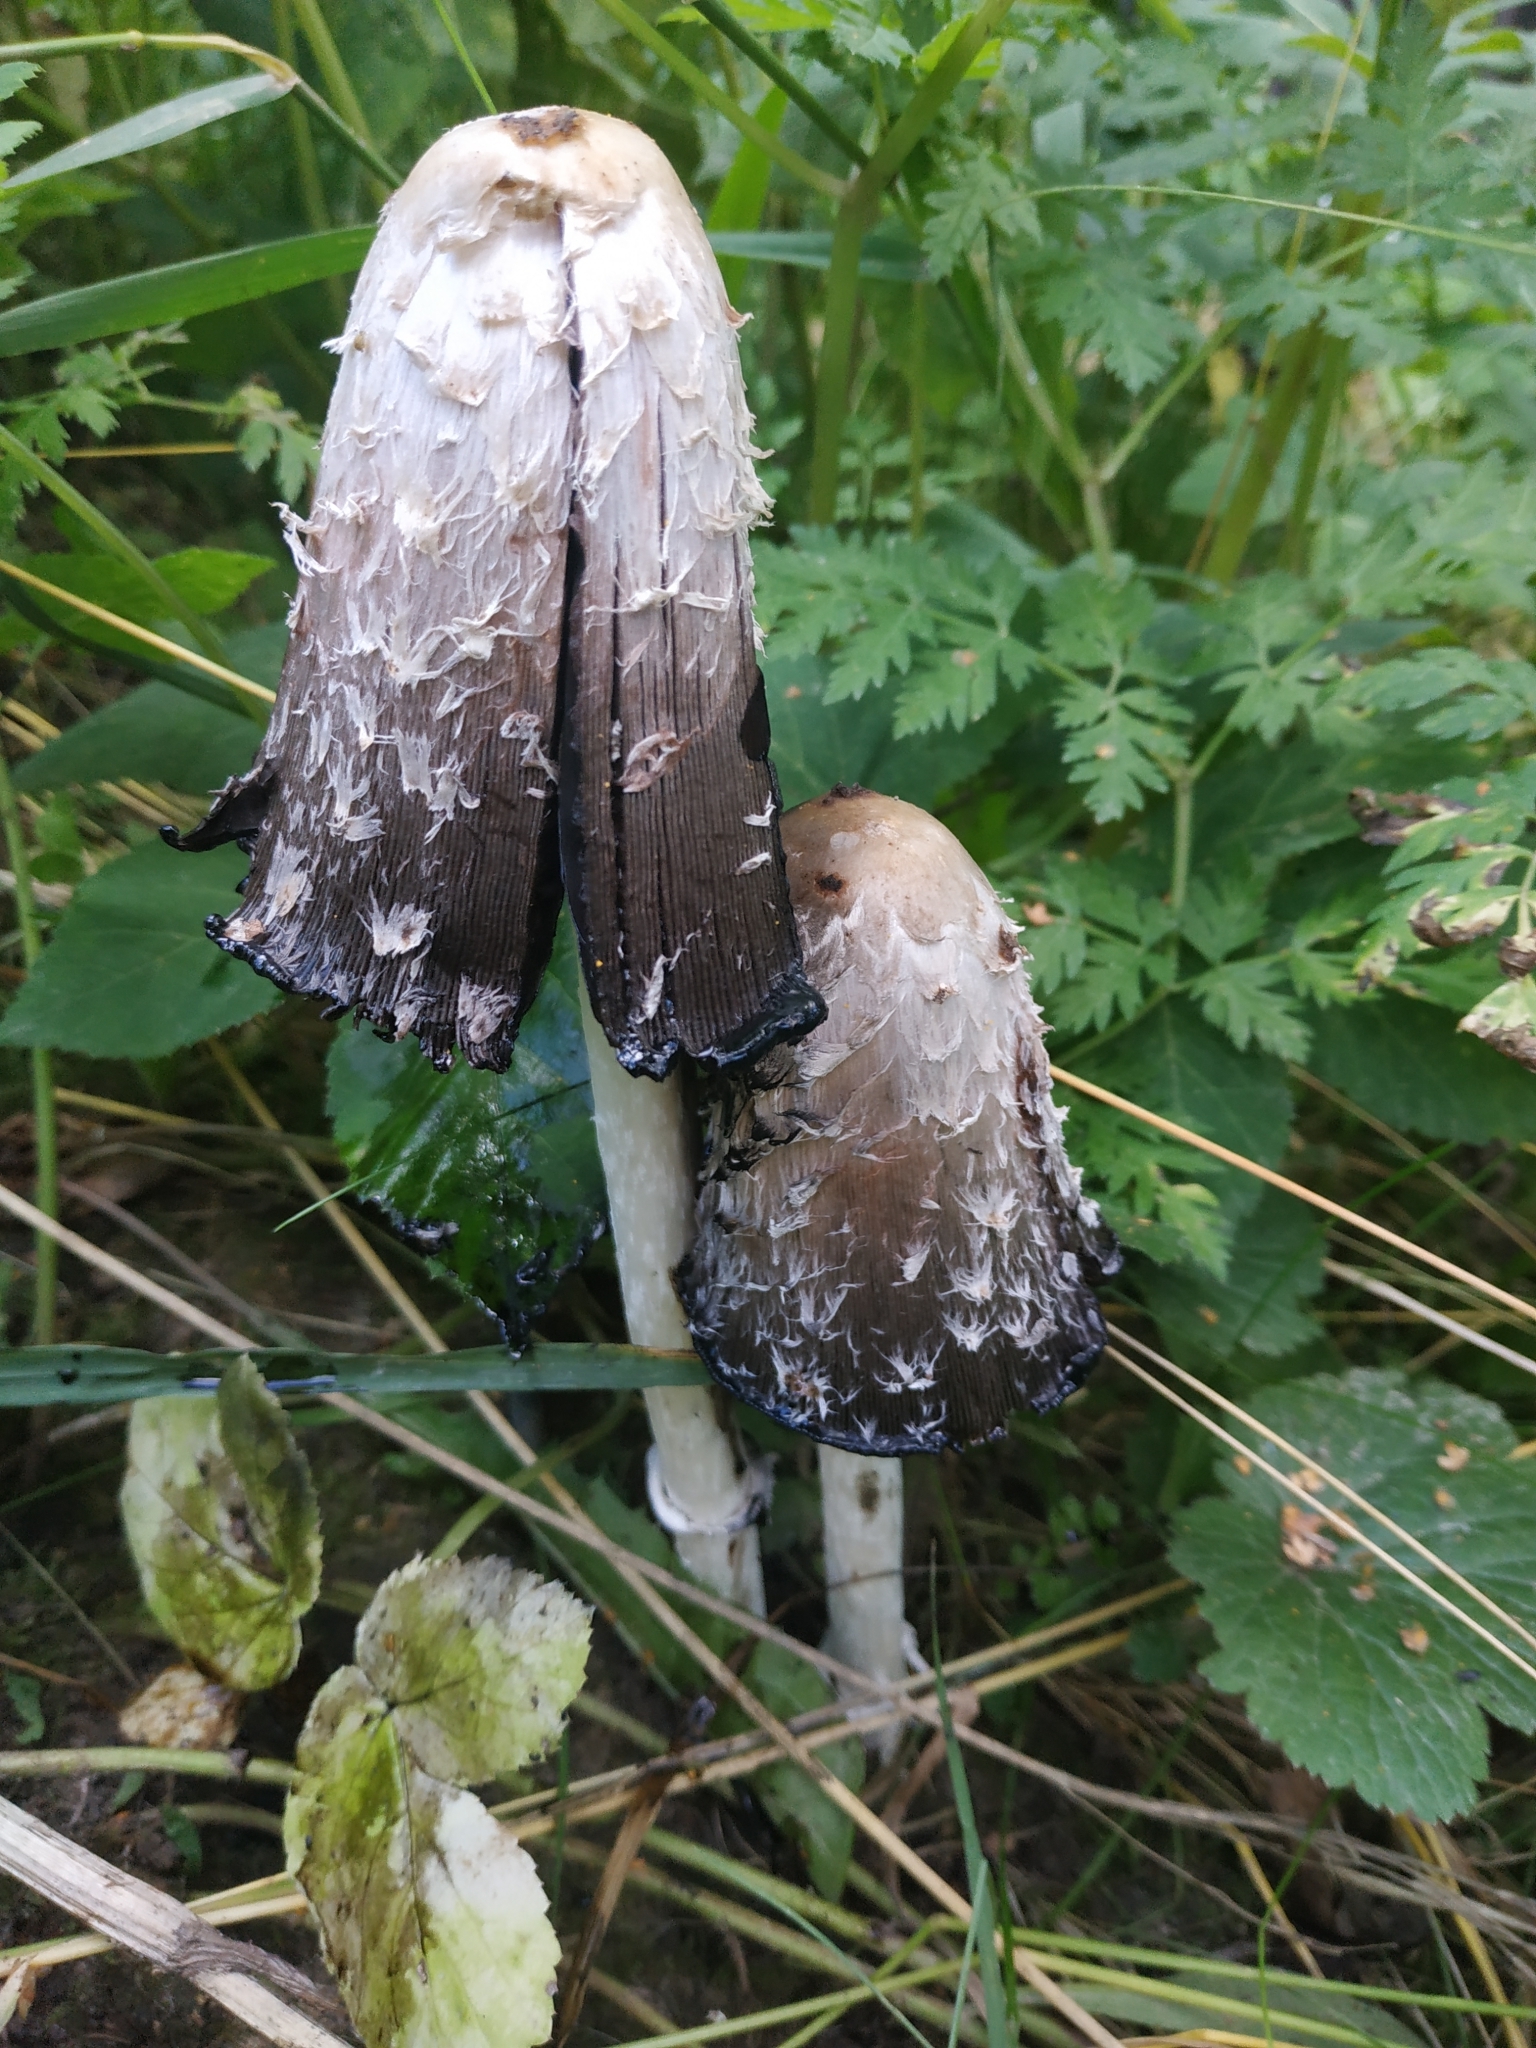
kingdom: Fungi
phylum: Basidiomycota
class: Agaricomycetes
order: Agaricales
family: Agaricaceae
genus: Coprinus
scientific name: Coprinus comatus
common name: Lawyer's wig
